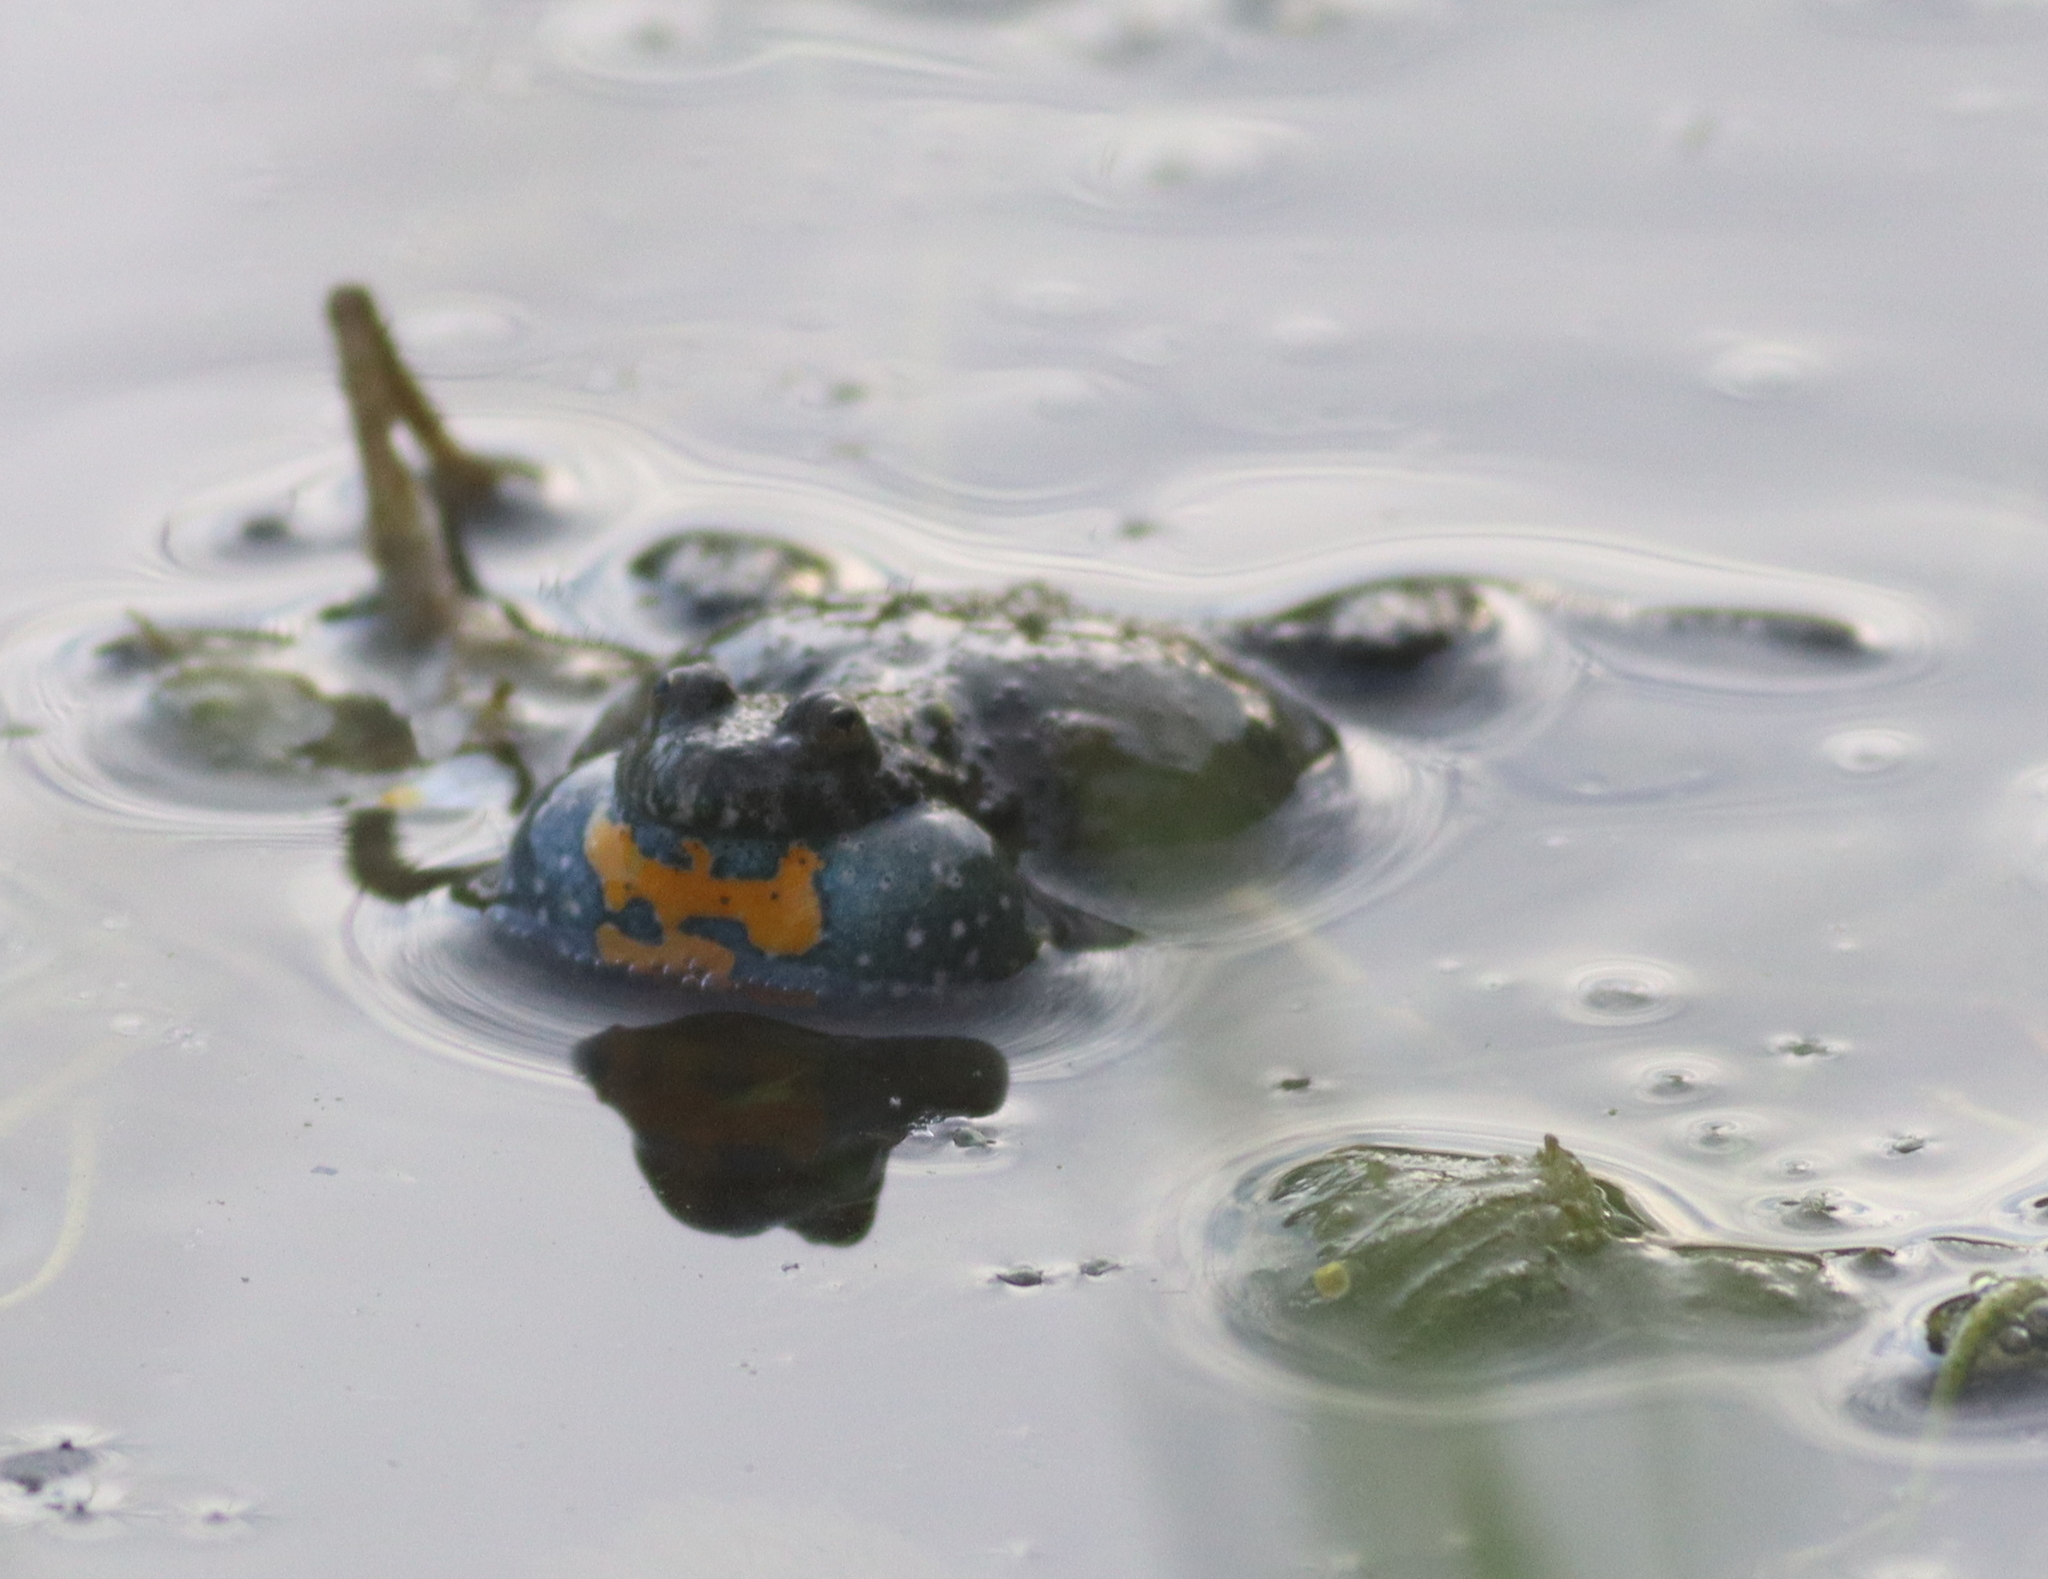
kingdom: Animalia
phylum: Chordata
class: Amphibia
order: Anura
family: Bombinatoridae
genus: Bombina
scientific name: Bombina bombina
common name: Fire-bellied toad
